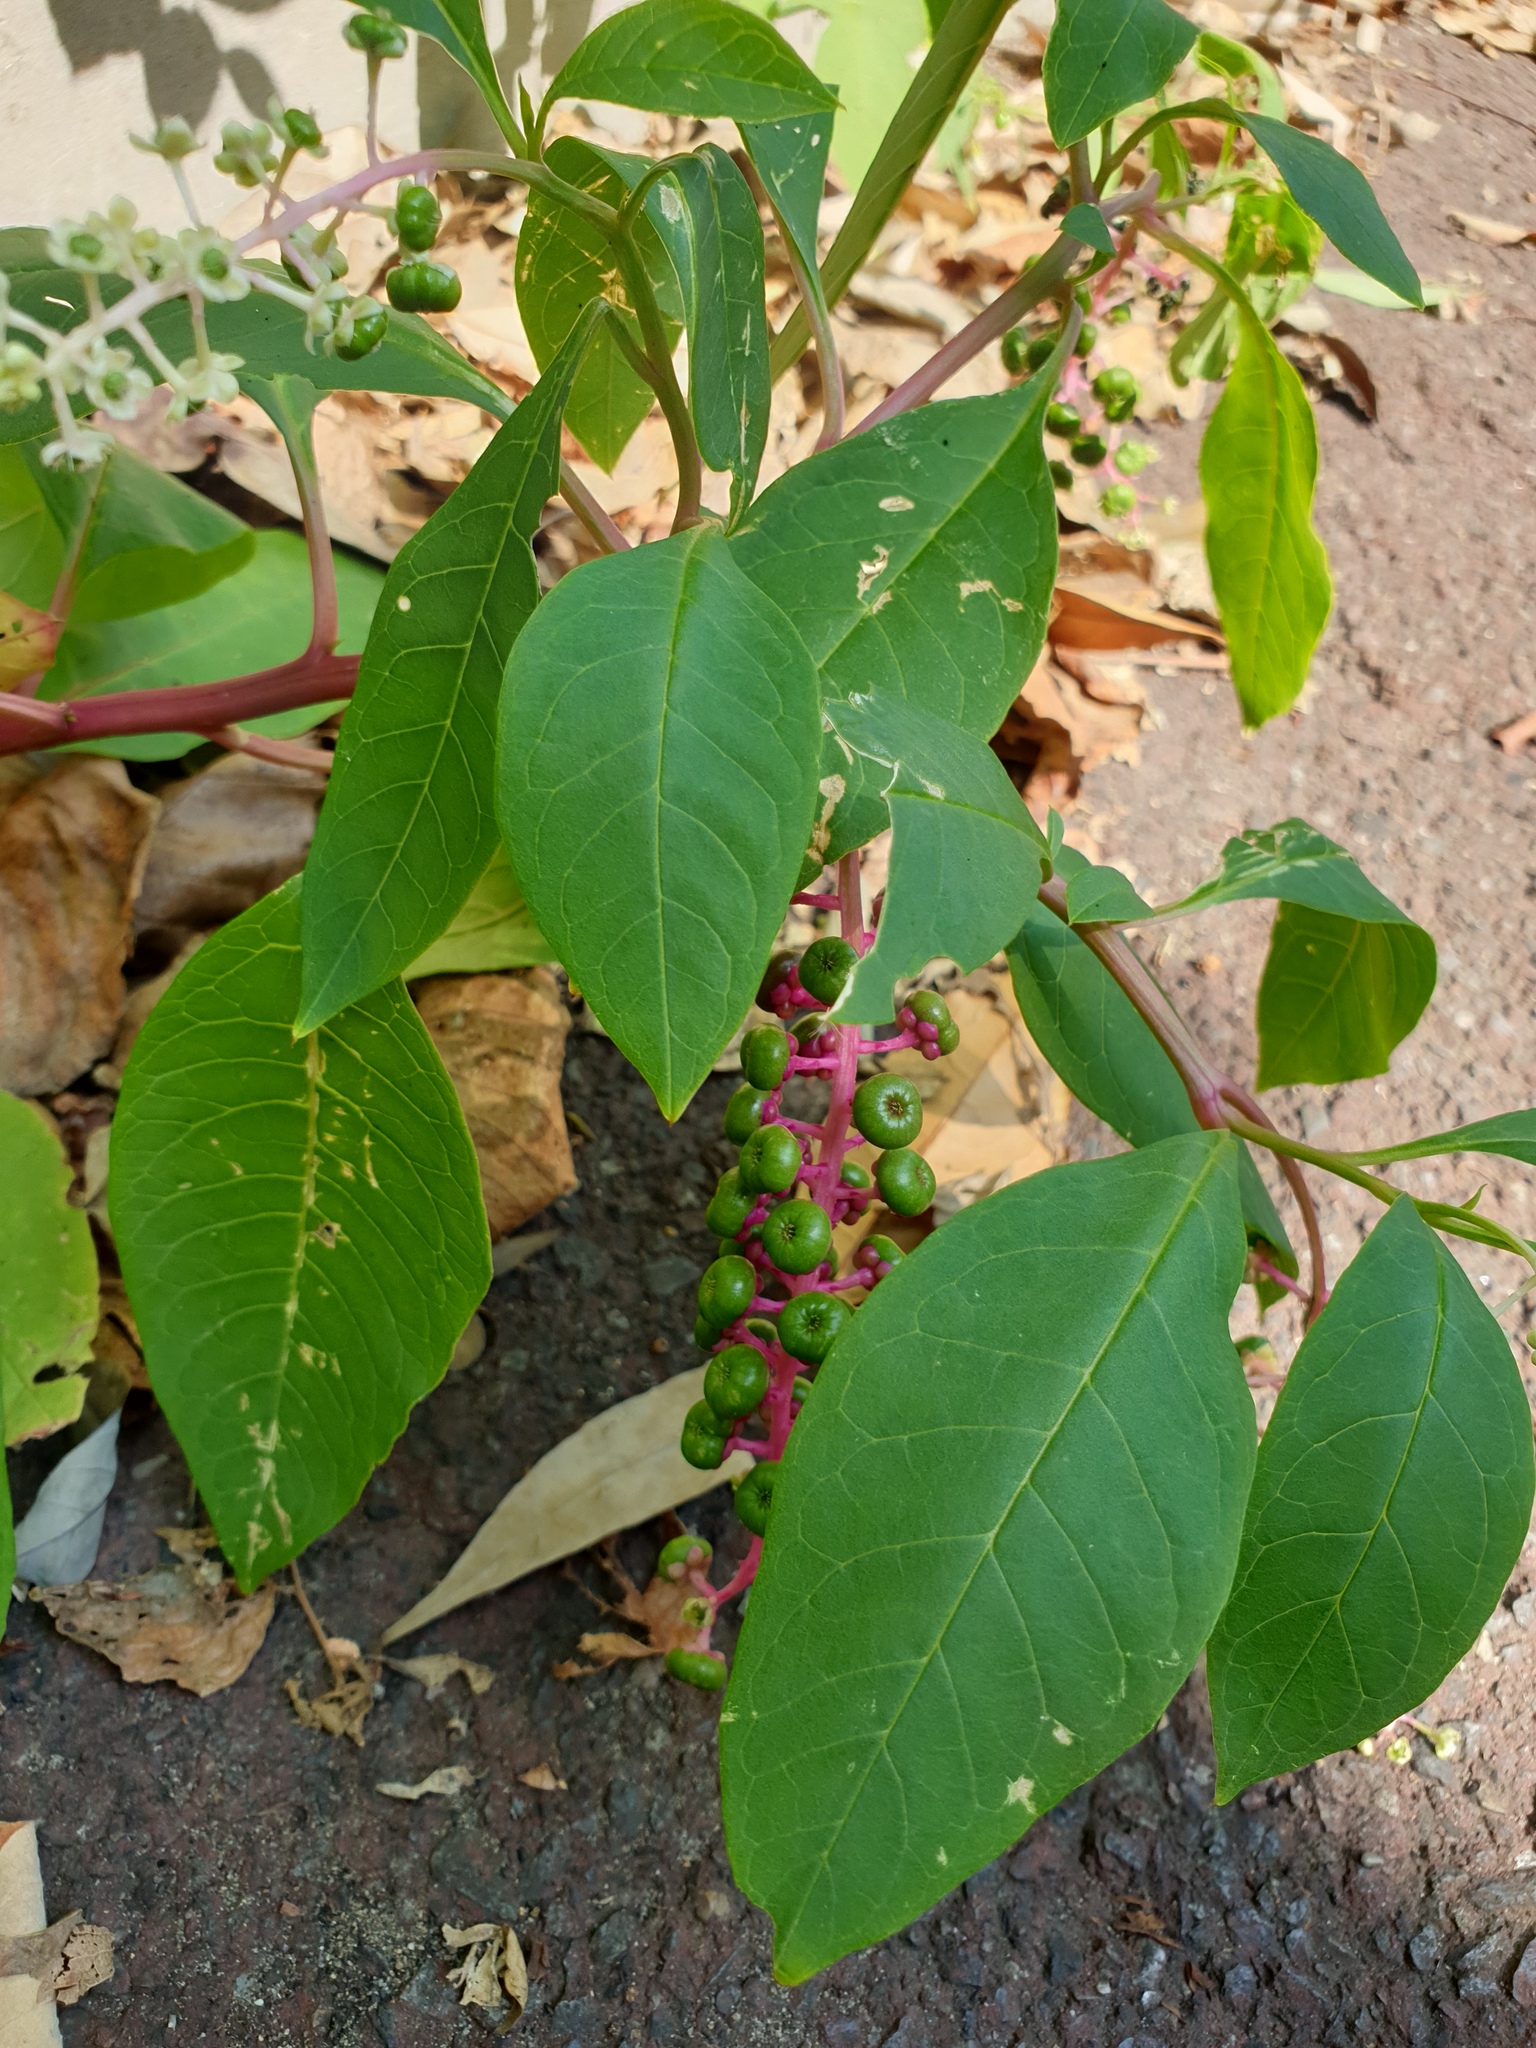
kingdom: Plantae
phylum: Tracheophyta
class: Magnoliopsida
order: Caryophyllales
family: Phytolaccaceae
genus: Phytolacca
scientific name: Phytolacca americana
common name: American pokeweed
